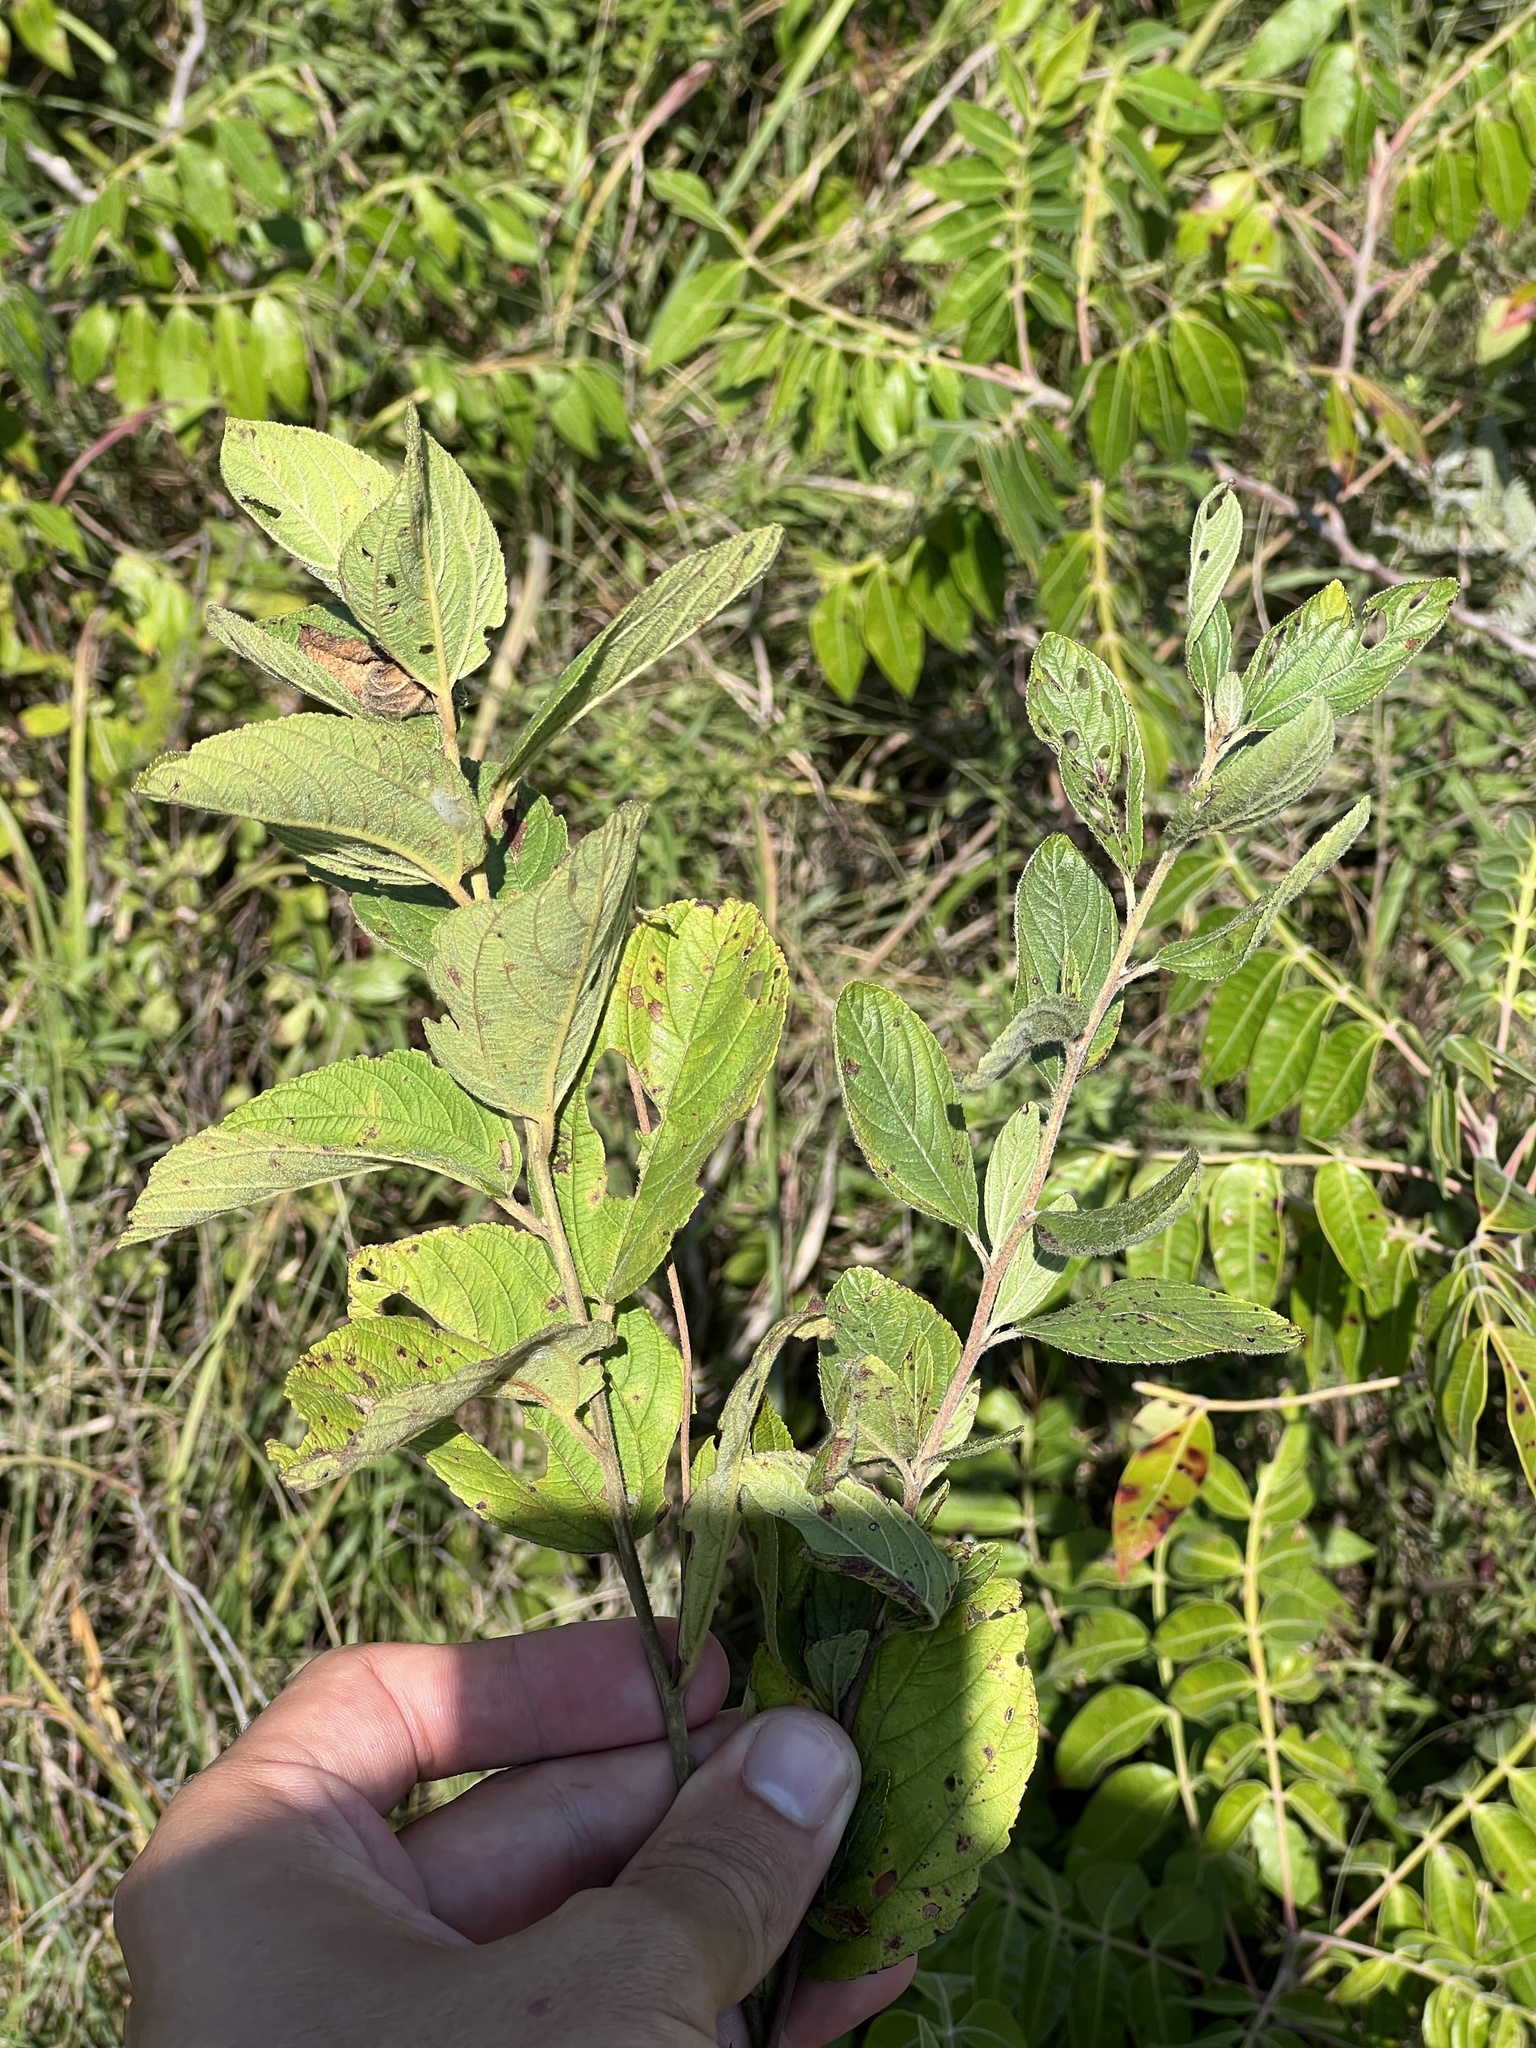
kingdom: Plantae
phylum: Tracheophyta
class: Magnoliopsida
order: Rosales
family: Rhamnaceae
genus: Ceanothus
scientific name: Ceanothus americanus
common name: Redroot
